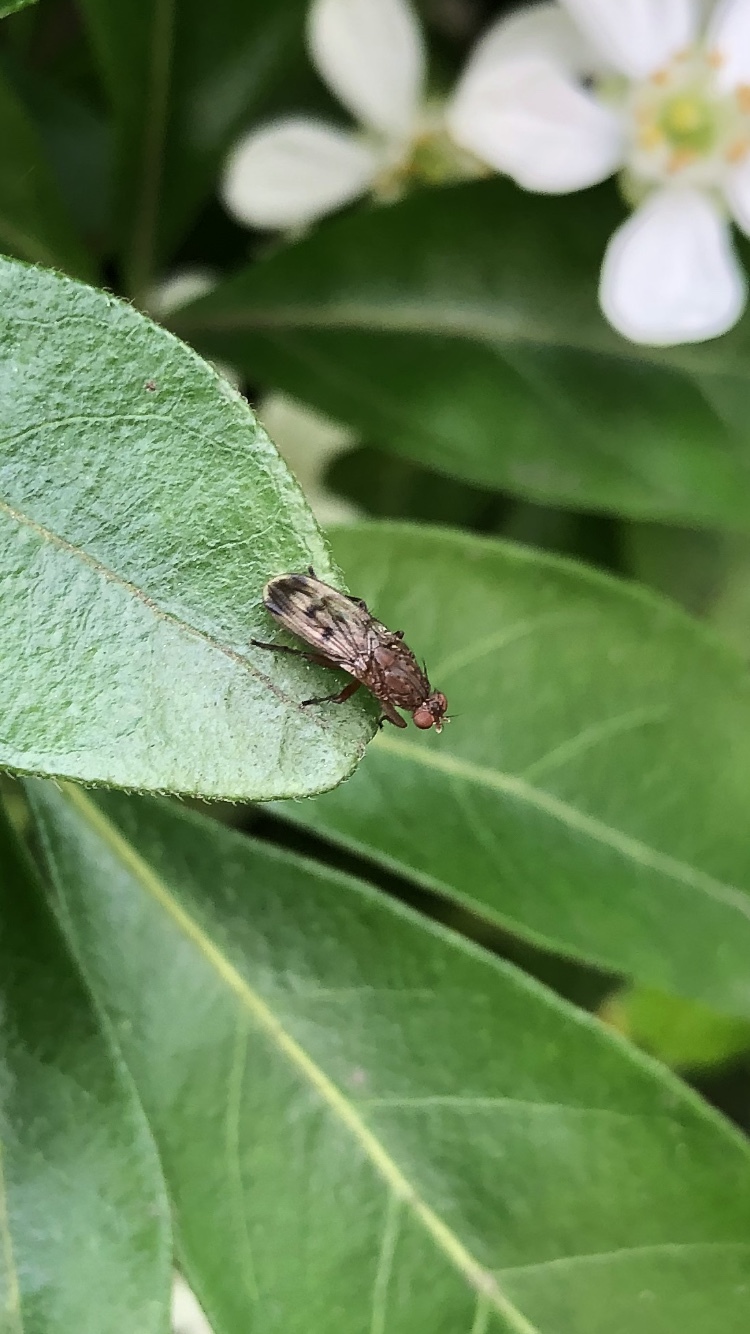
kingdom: Animalia
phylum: Arthropoda
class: Insecta
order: Diptera
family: Heleomyzidae
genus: Suillia
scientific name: Suillia variegata
